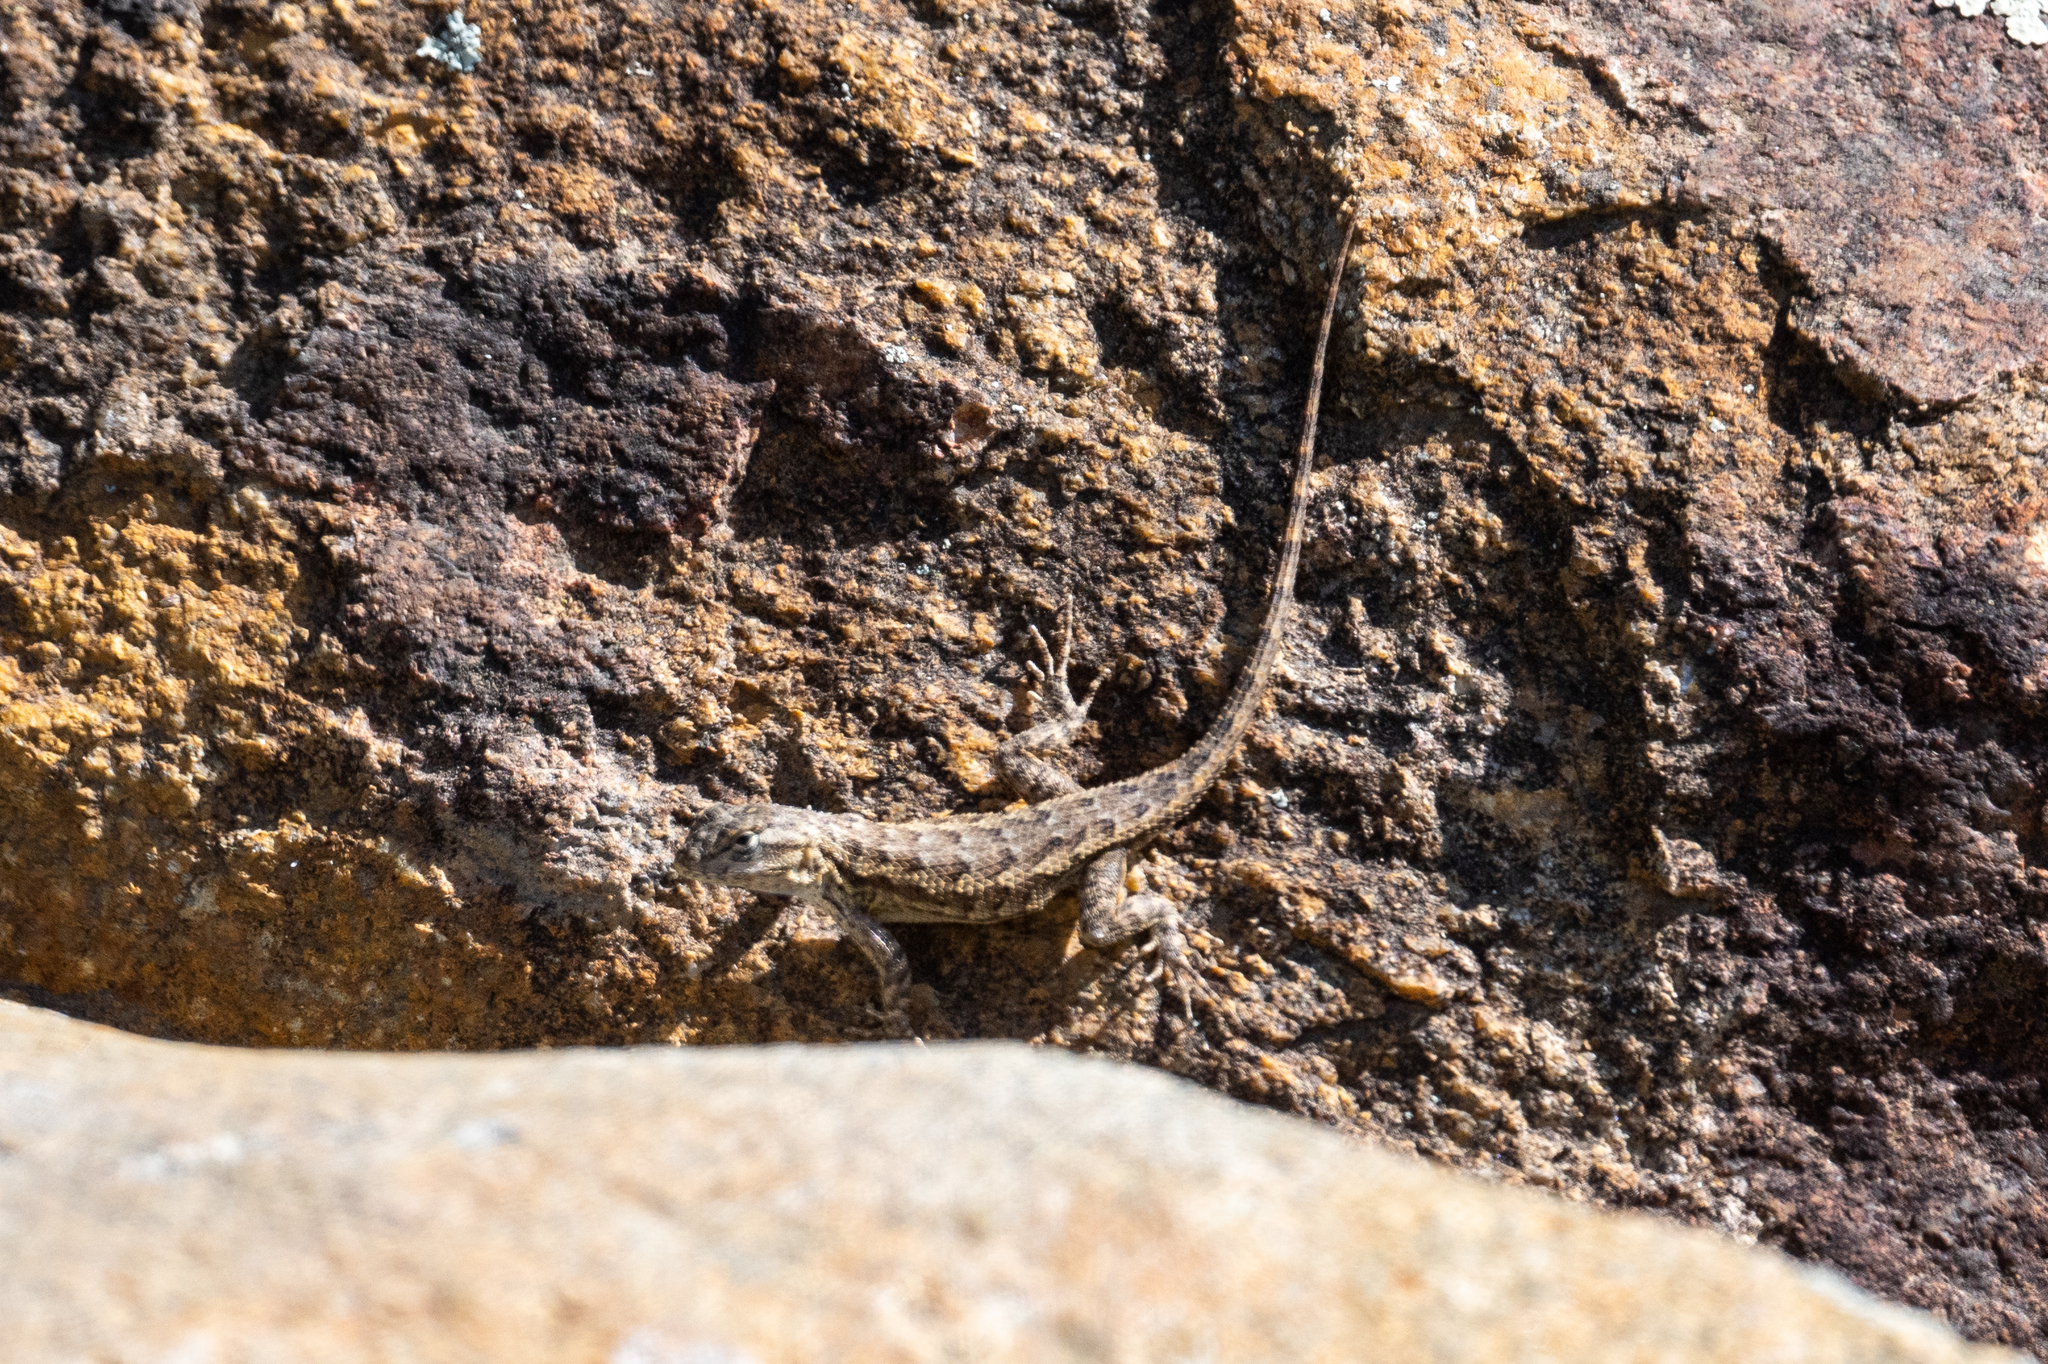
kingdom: Animalia
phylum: Chordata
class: Squamata
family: Phrynosomatidae
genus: Sceloporus
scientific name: Sceloporus occidentalis
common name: Western fence lizard
